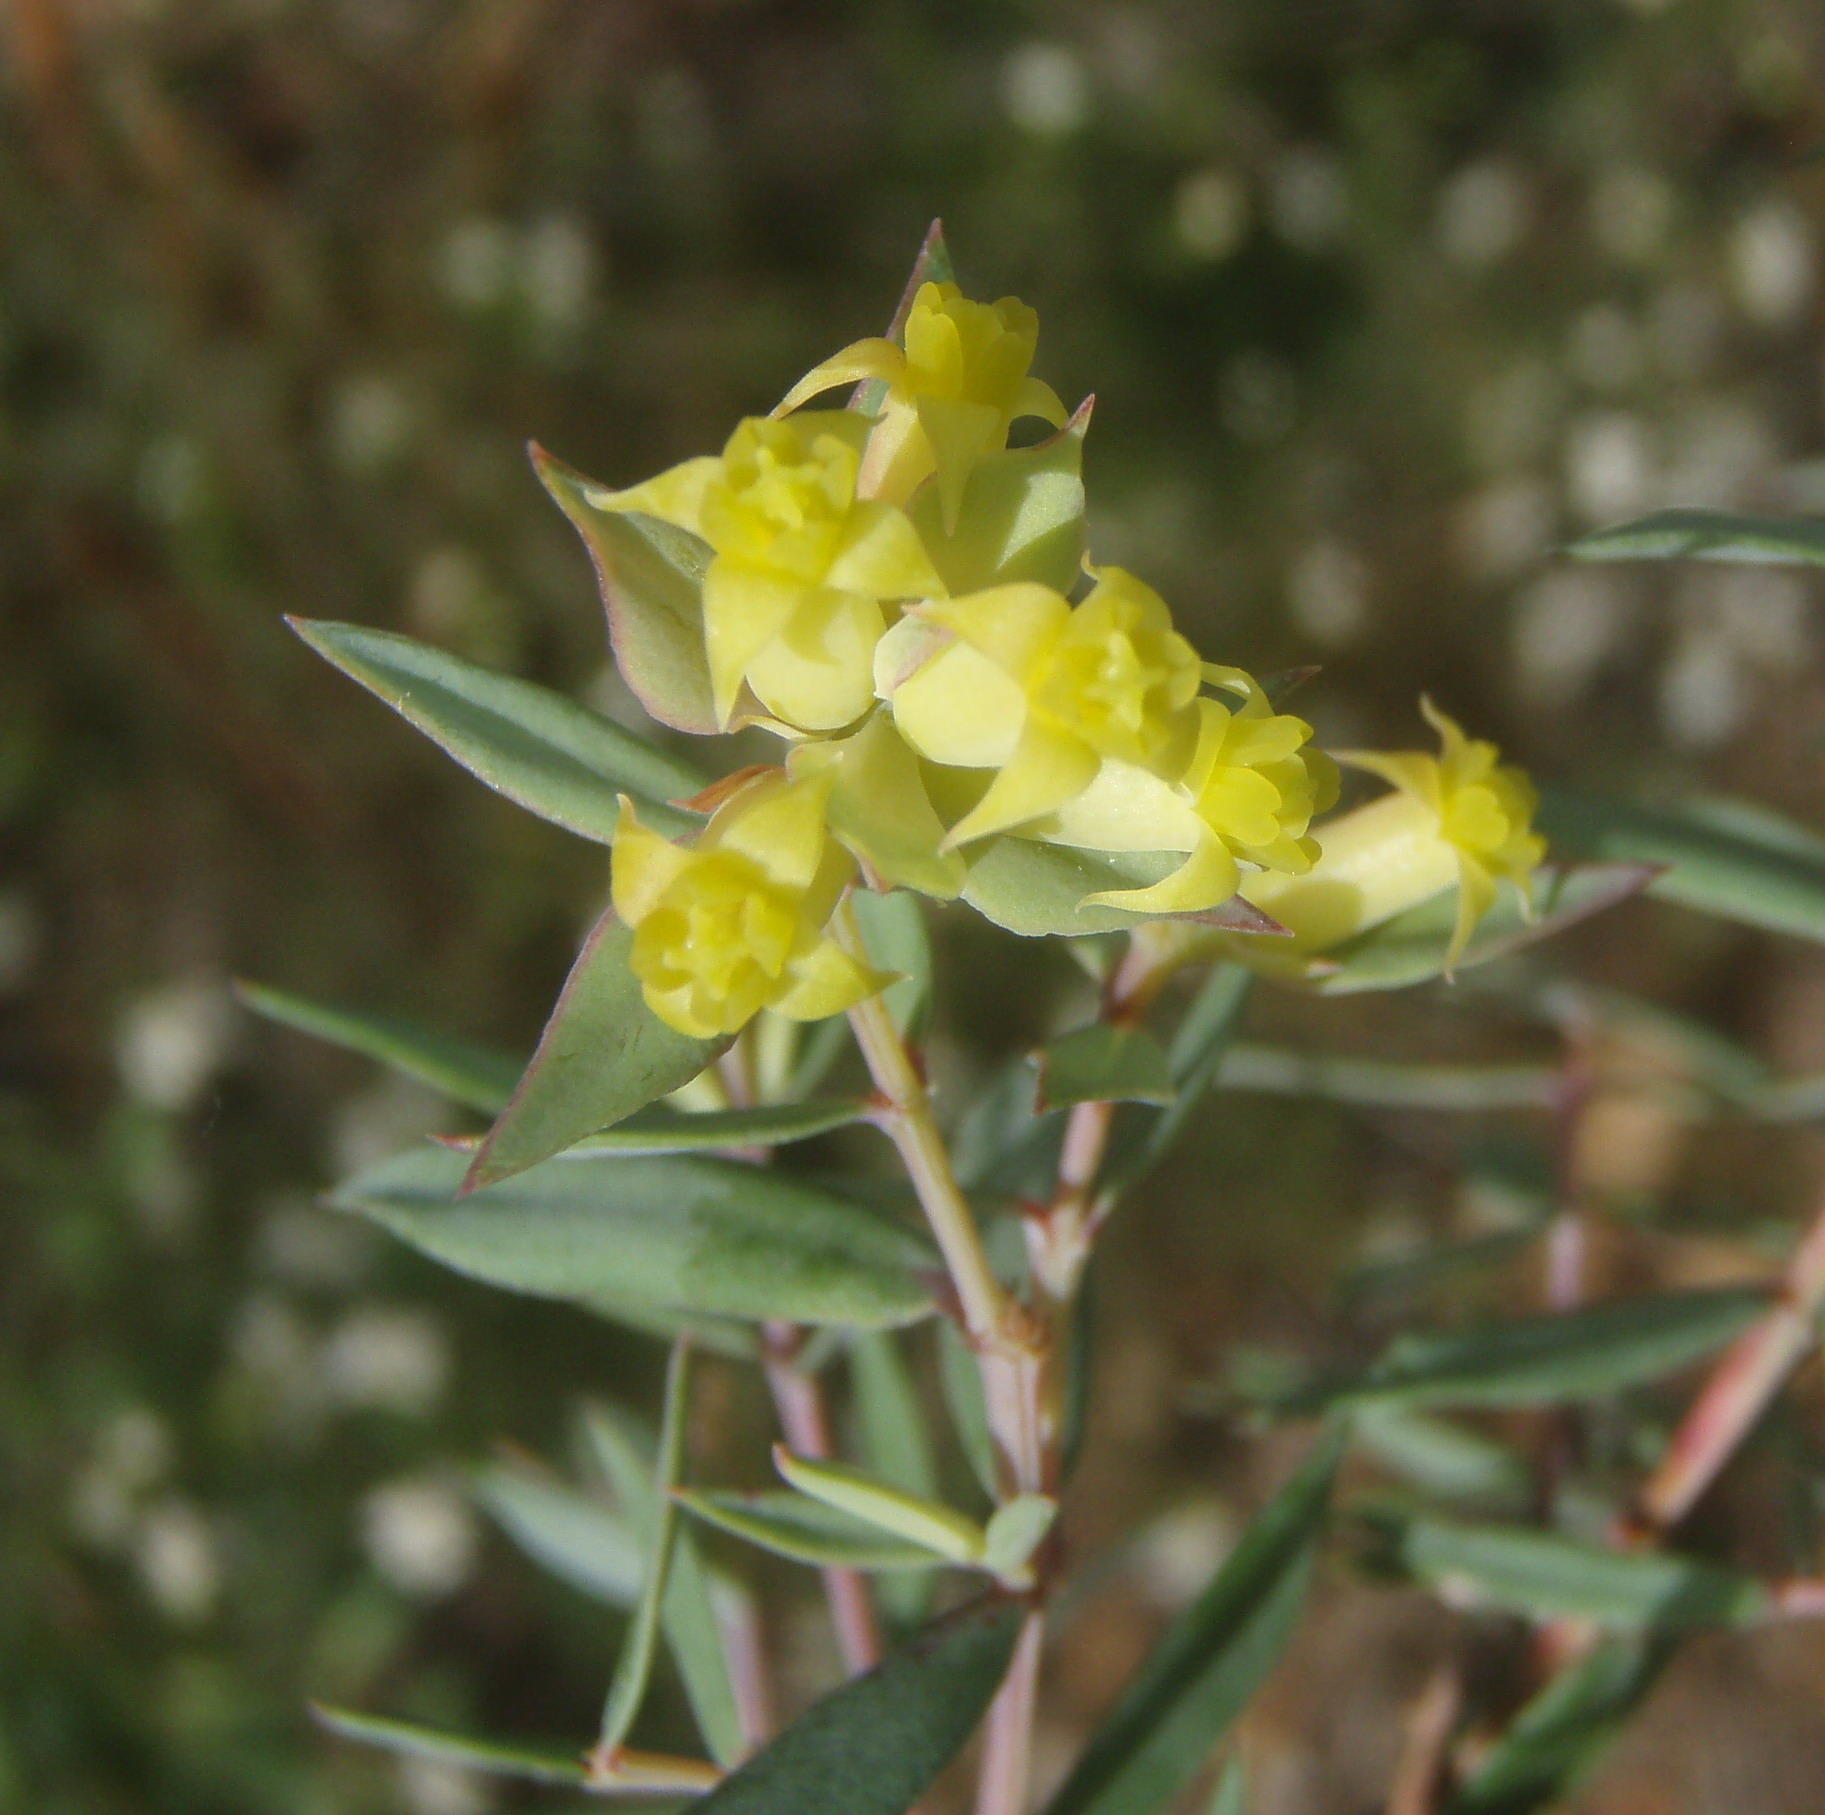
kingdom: Plantae
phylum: Tracheophyta
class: Magnoliopsida
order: Myrtales
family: Penaeaceae
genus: Penaea
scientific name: Penaea acutifolia
